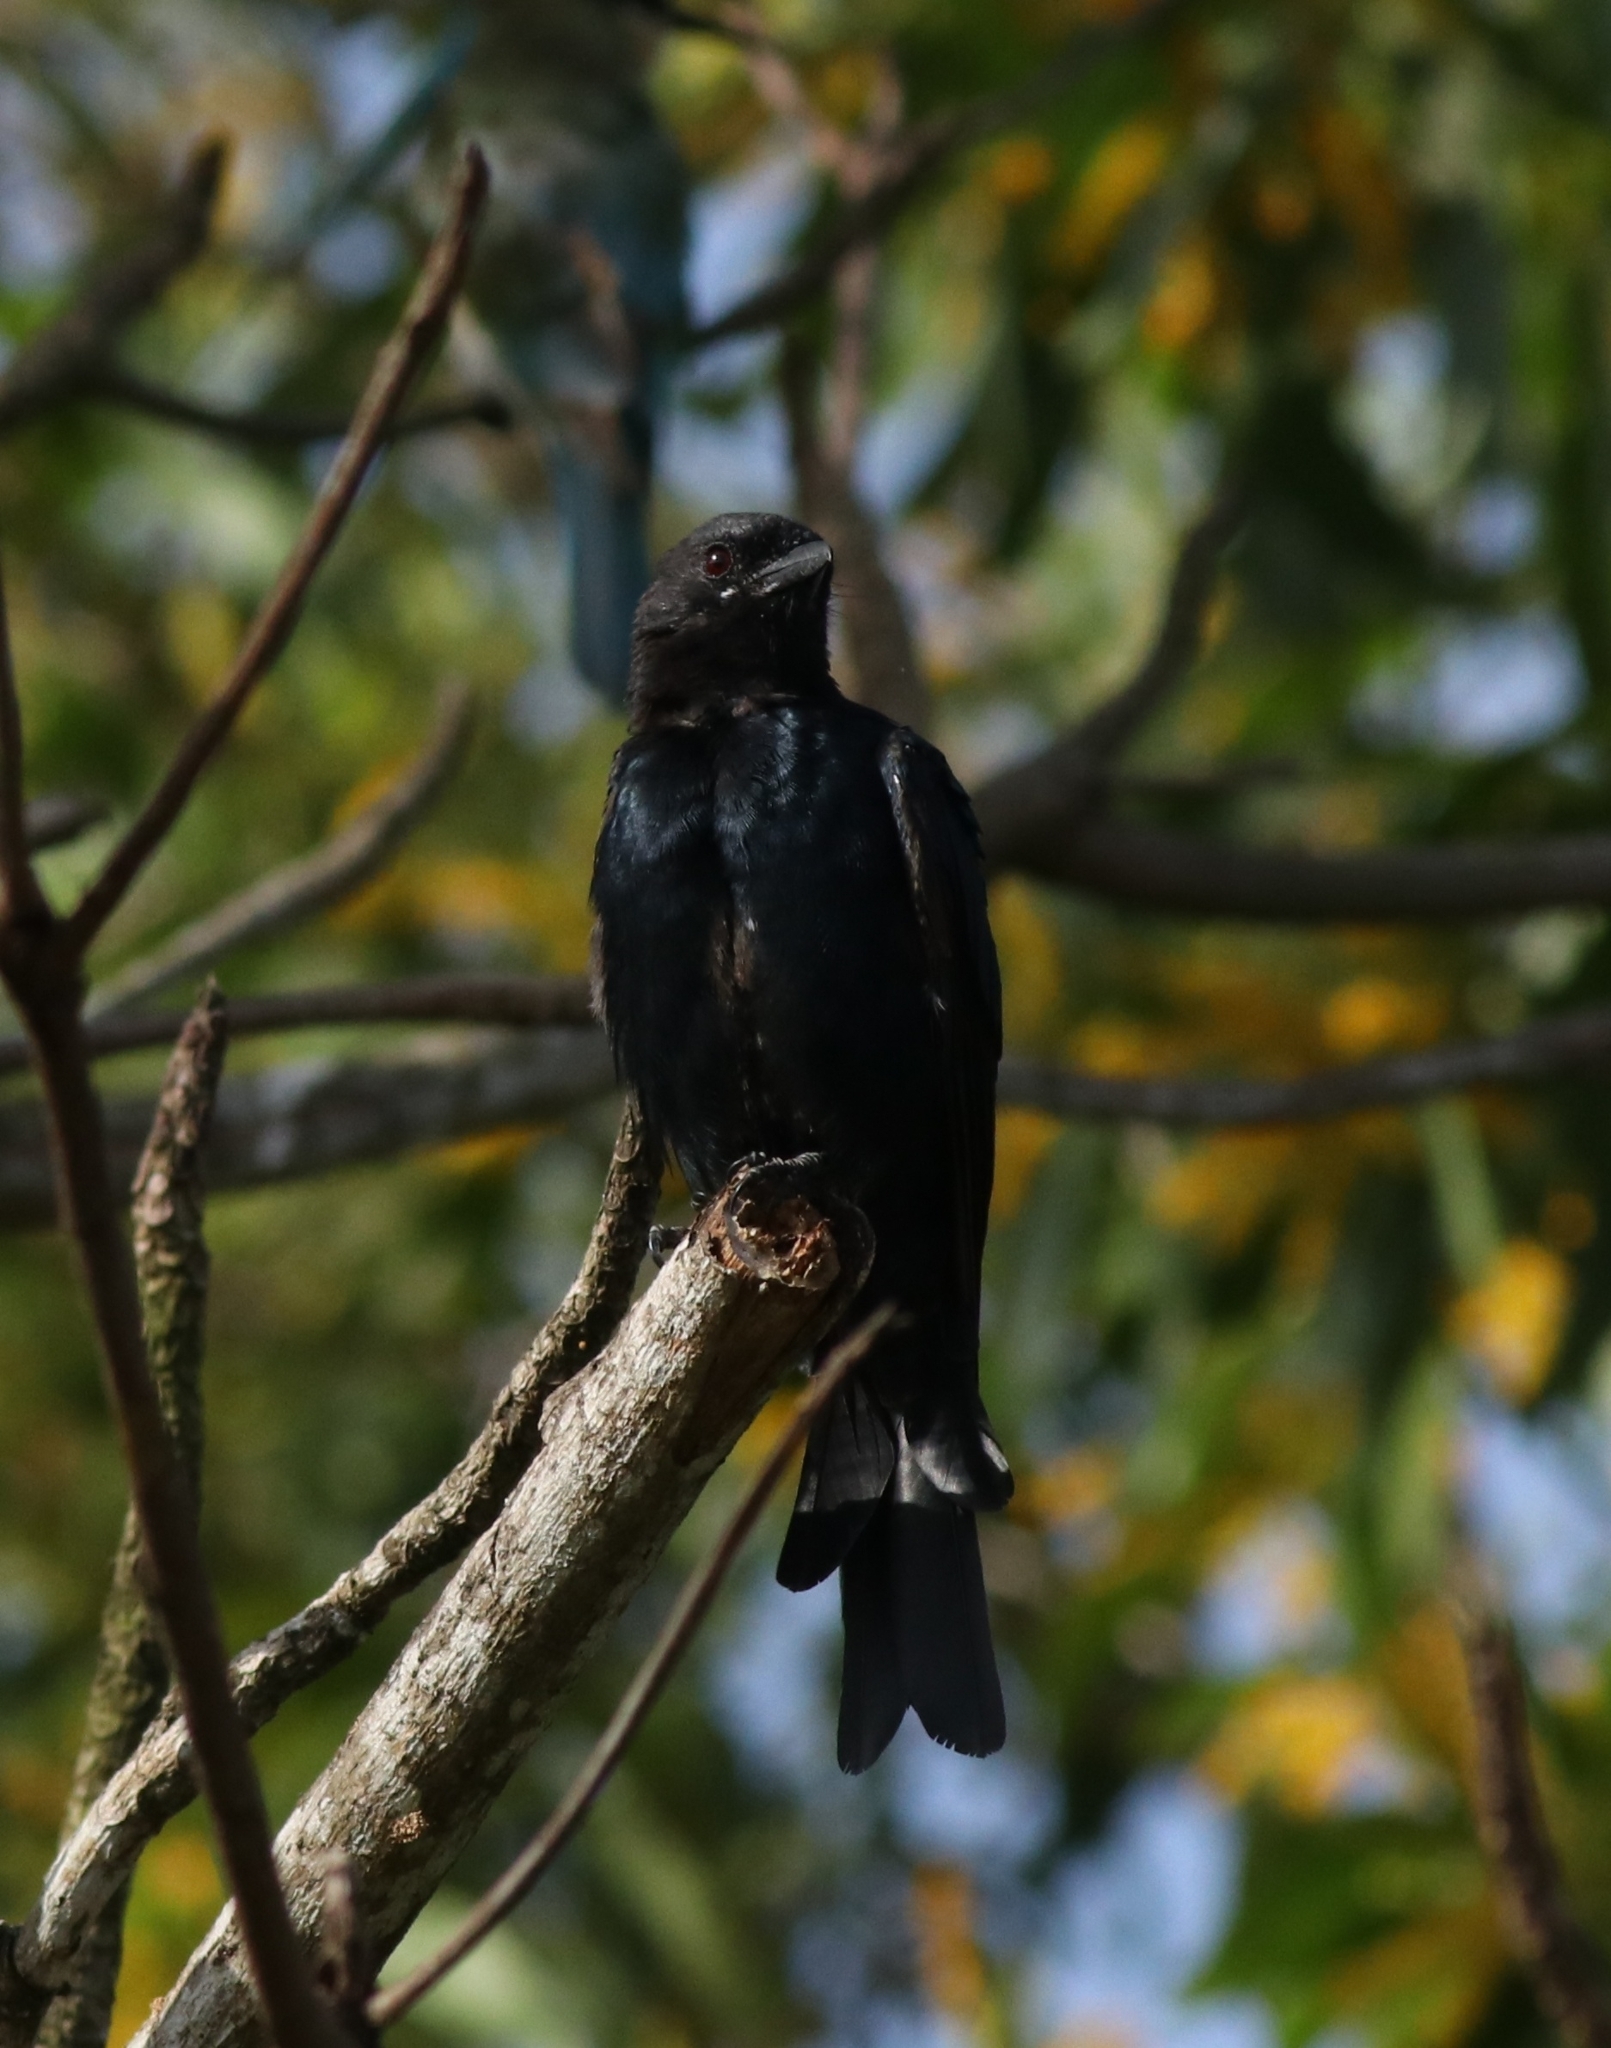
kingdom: Animalia
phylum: Chordata
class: Aves
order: Passeriformes
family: Dicruridae
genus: Dicrurus
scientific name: Dicrurus macrocercus
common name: Black drongo
